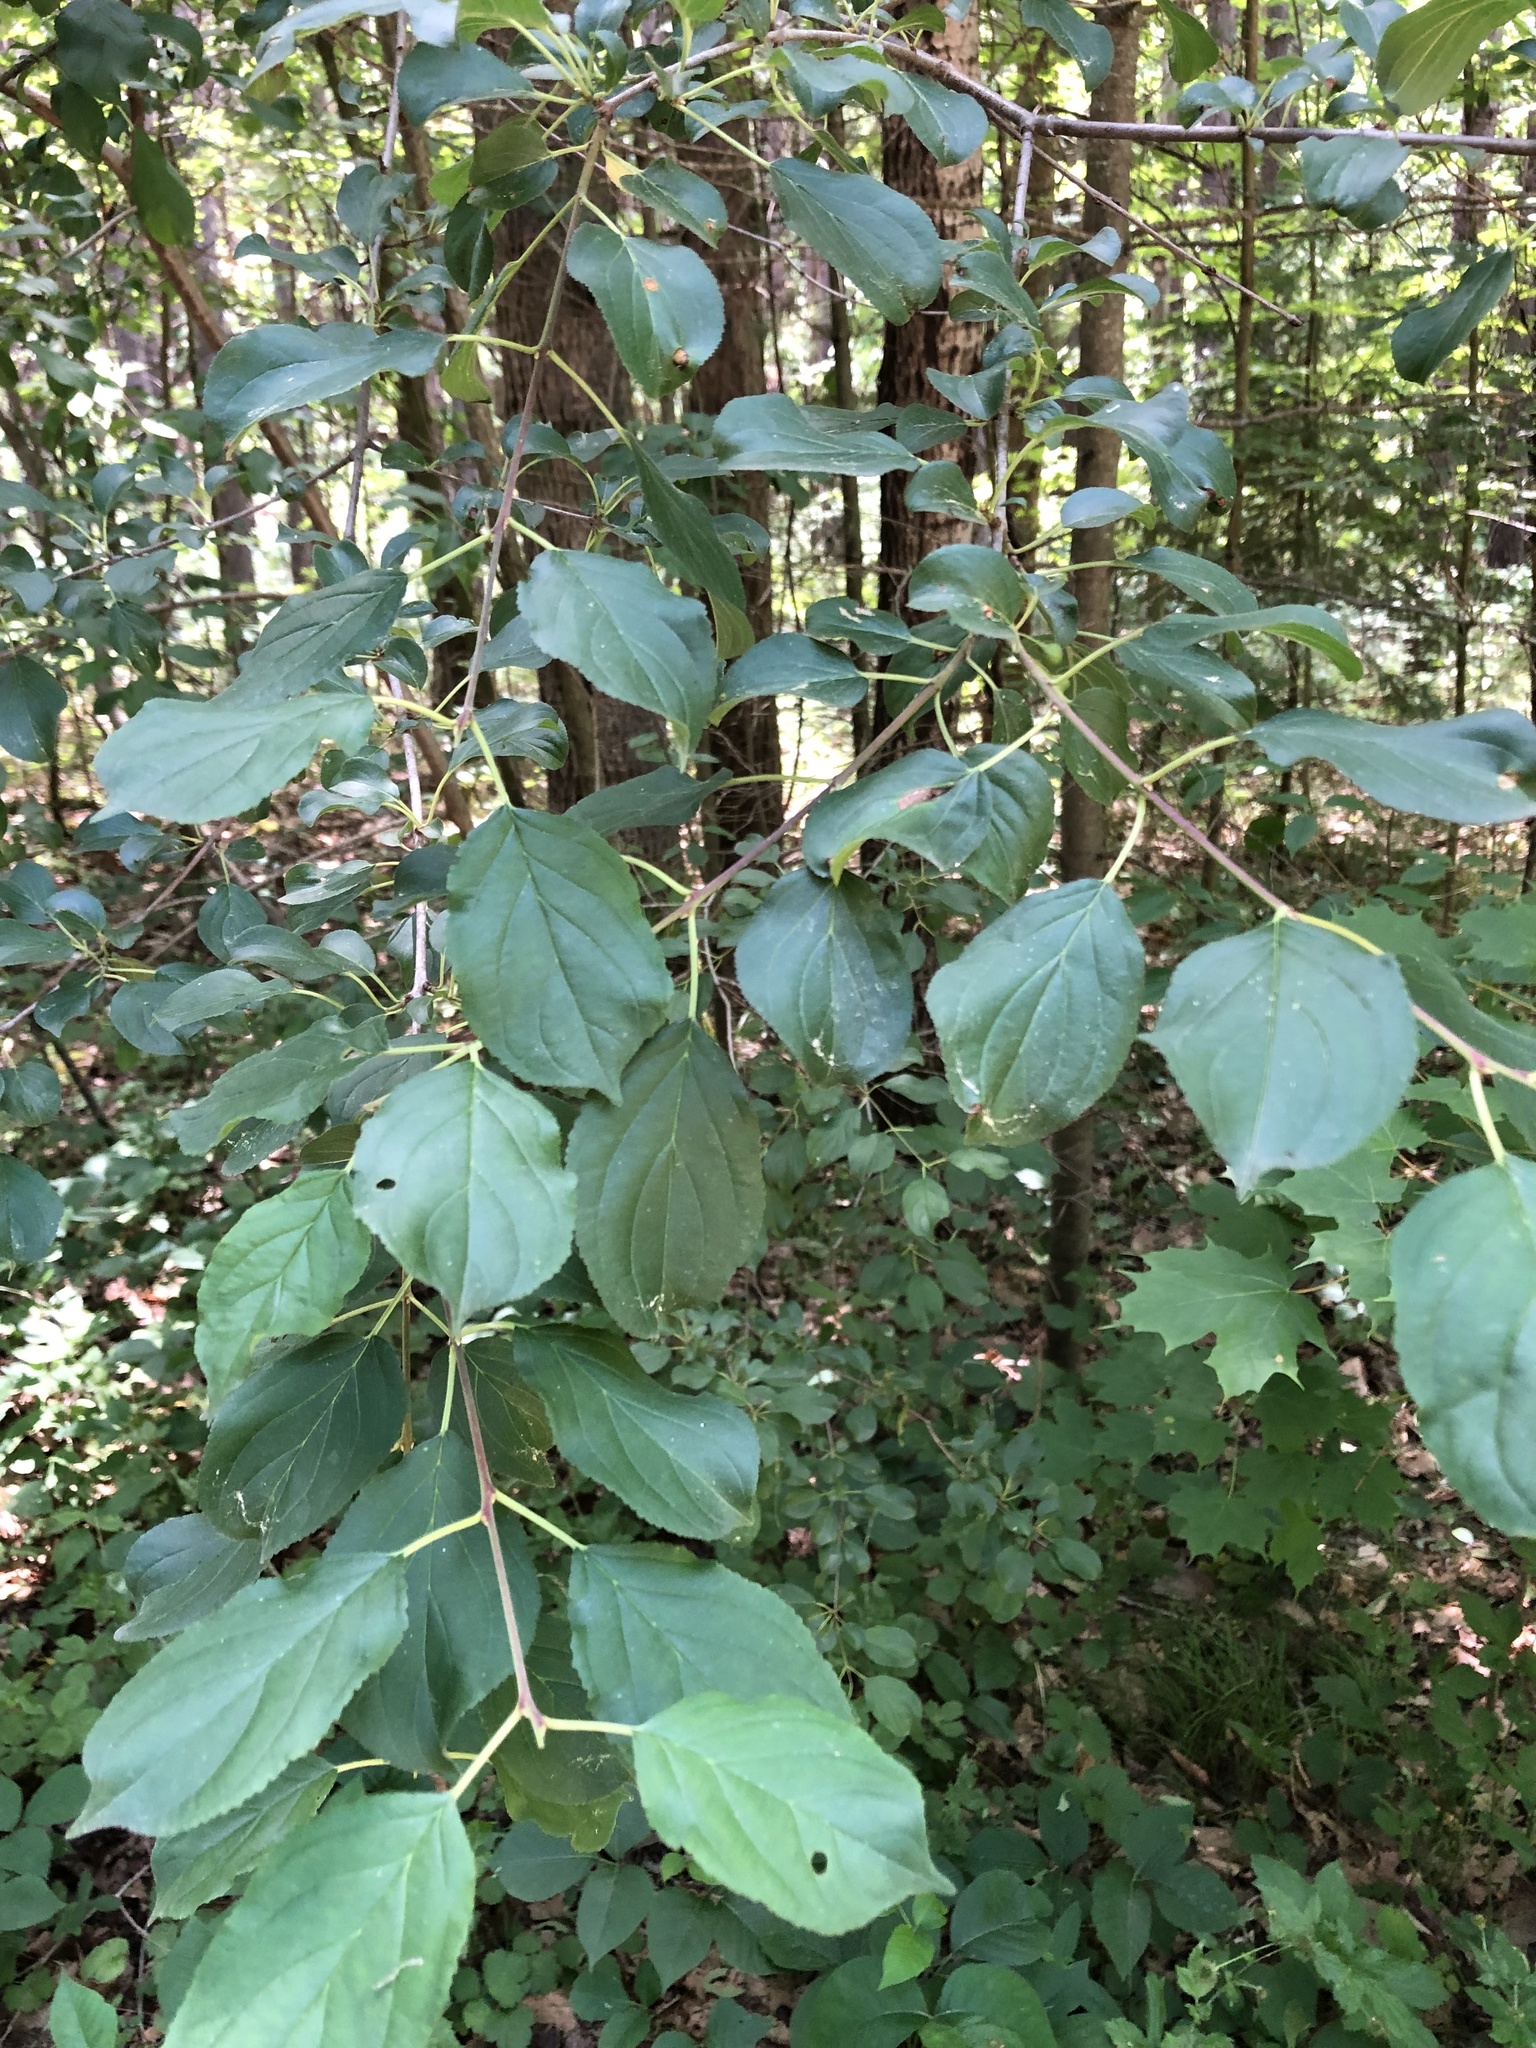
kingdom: Plantae
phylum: Tracheophyta
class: Magnoliopsida
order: Rosales
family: Rhamnaceae
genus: Rhamnus
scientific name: Rhamnus cathartica
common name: Common buckthorn
